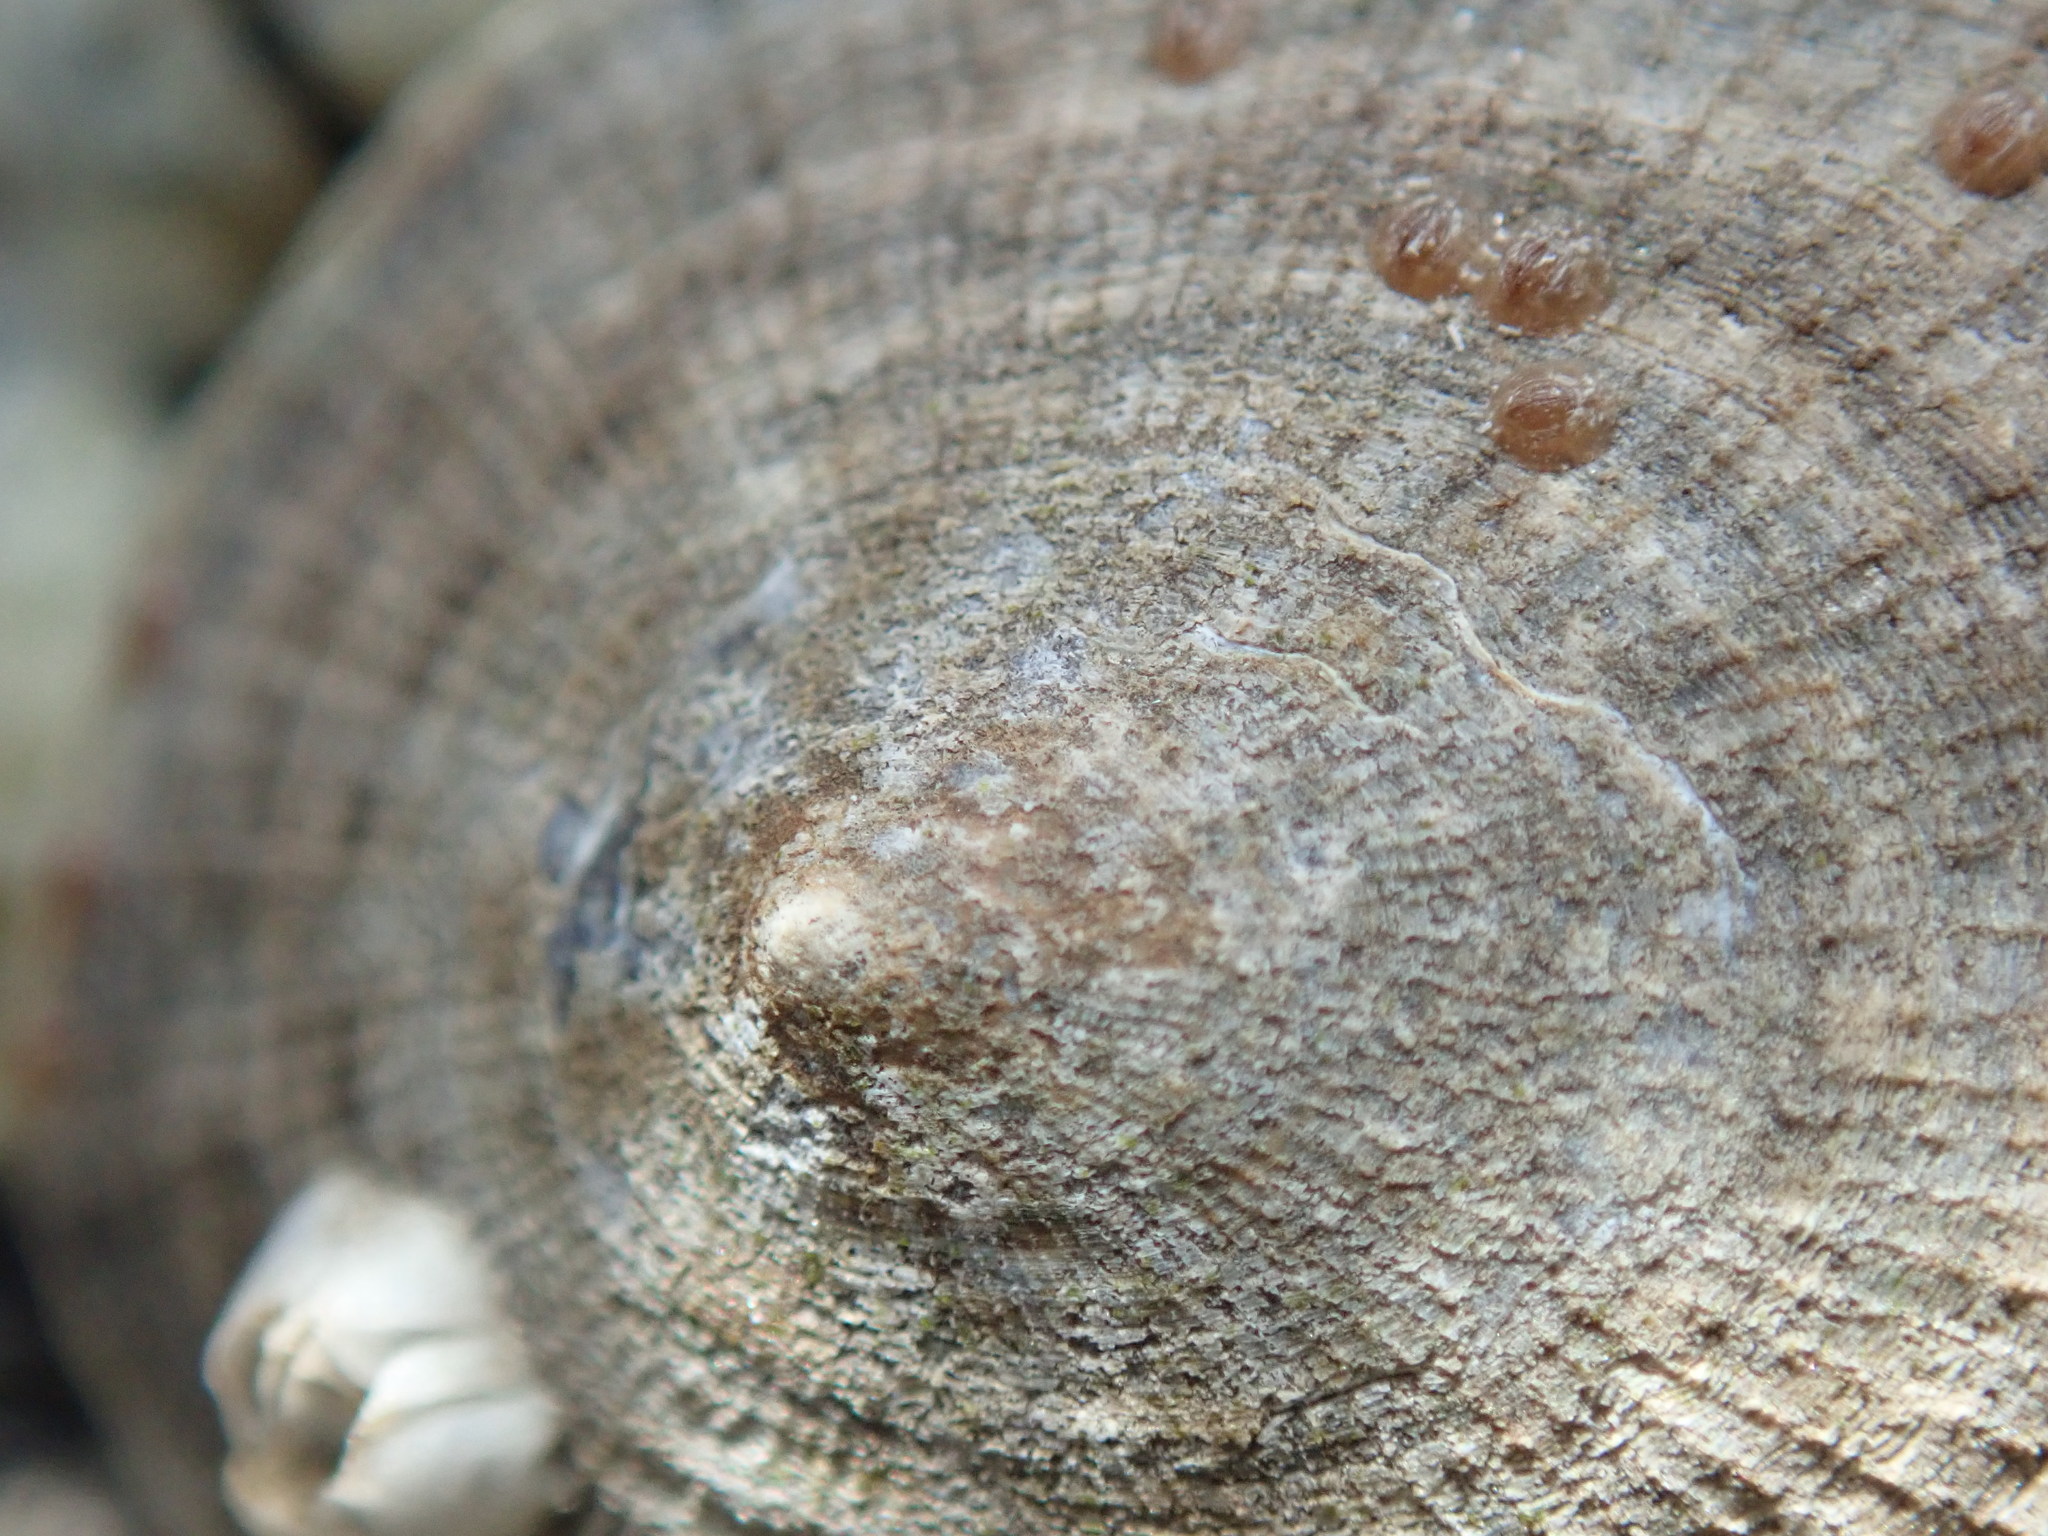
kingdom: Animalia
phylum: Mollusca
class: Gastropoda
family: Lottiidae
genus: Lottia
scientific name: Lottia persona
